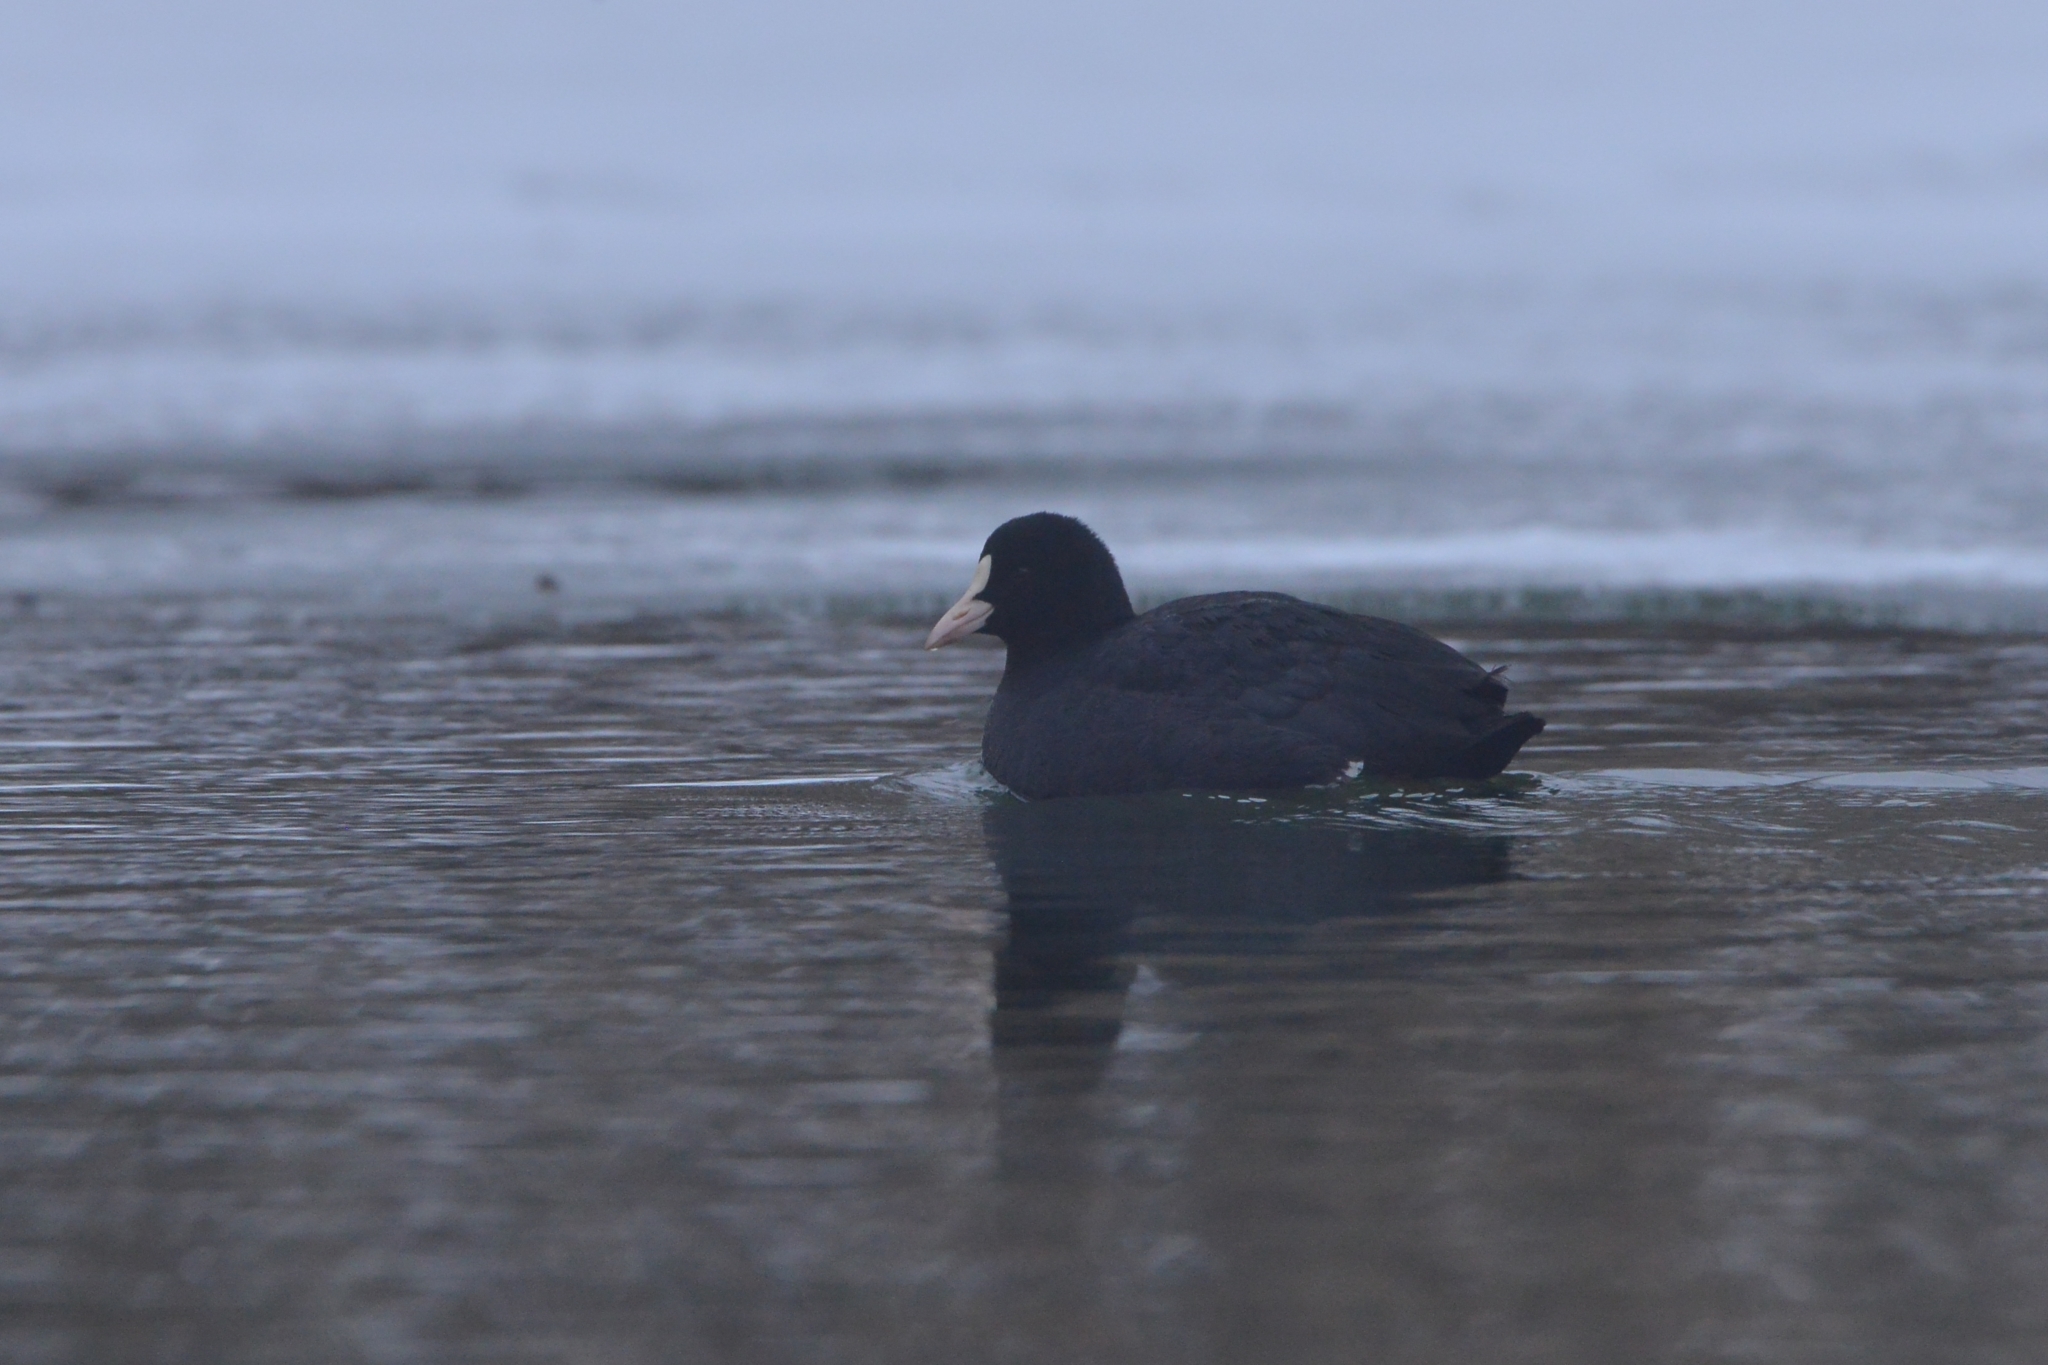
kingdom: Animalia
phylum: Chordata
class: Aves
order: Gruiformes
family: Rallidae
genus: Fulica
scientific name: Fulica atra
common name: Eurasian coot
